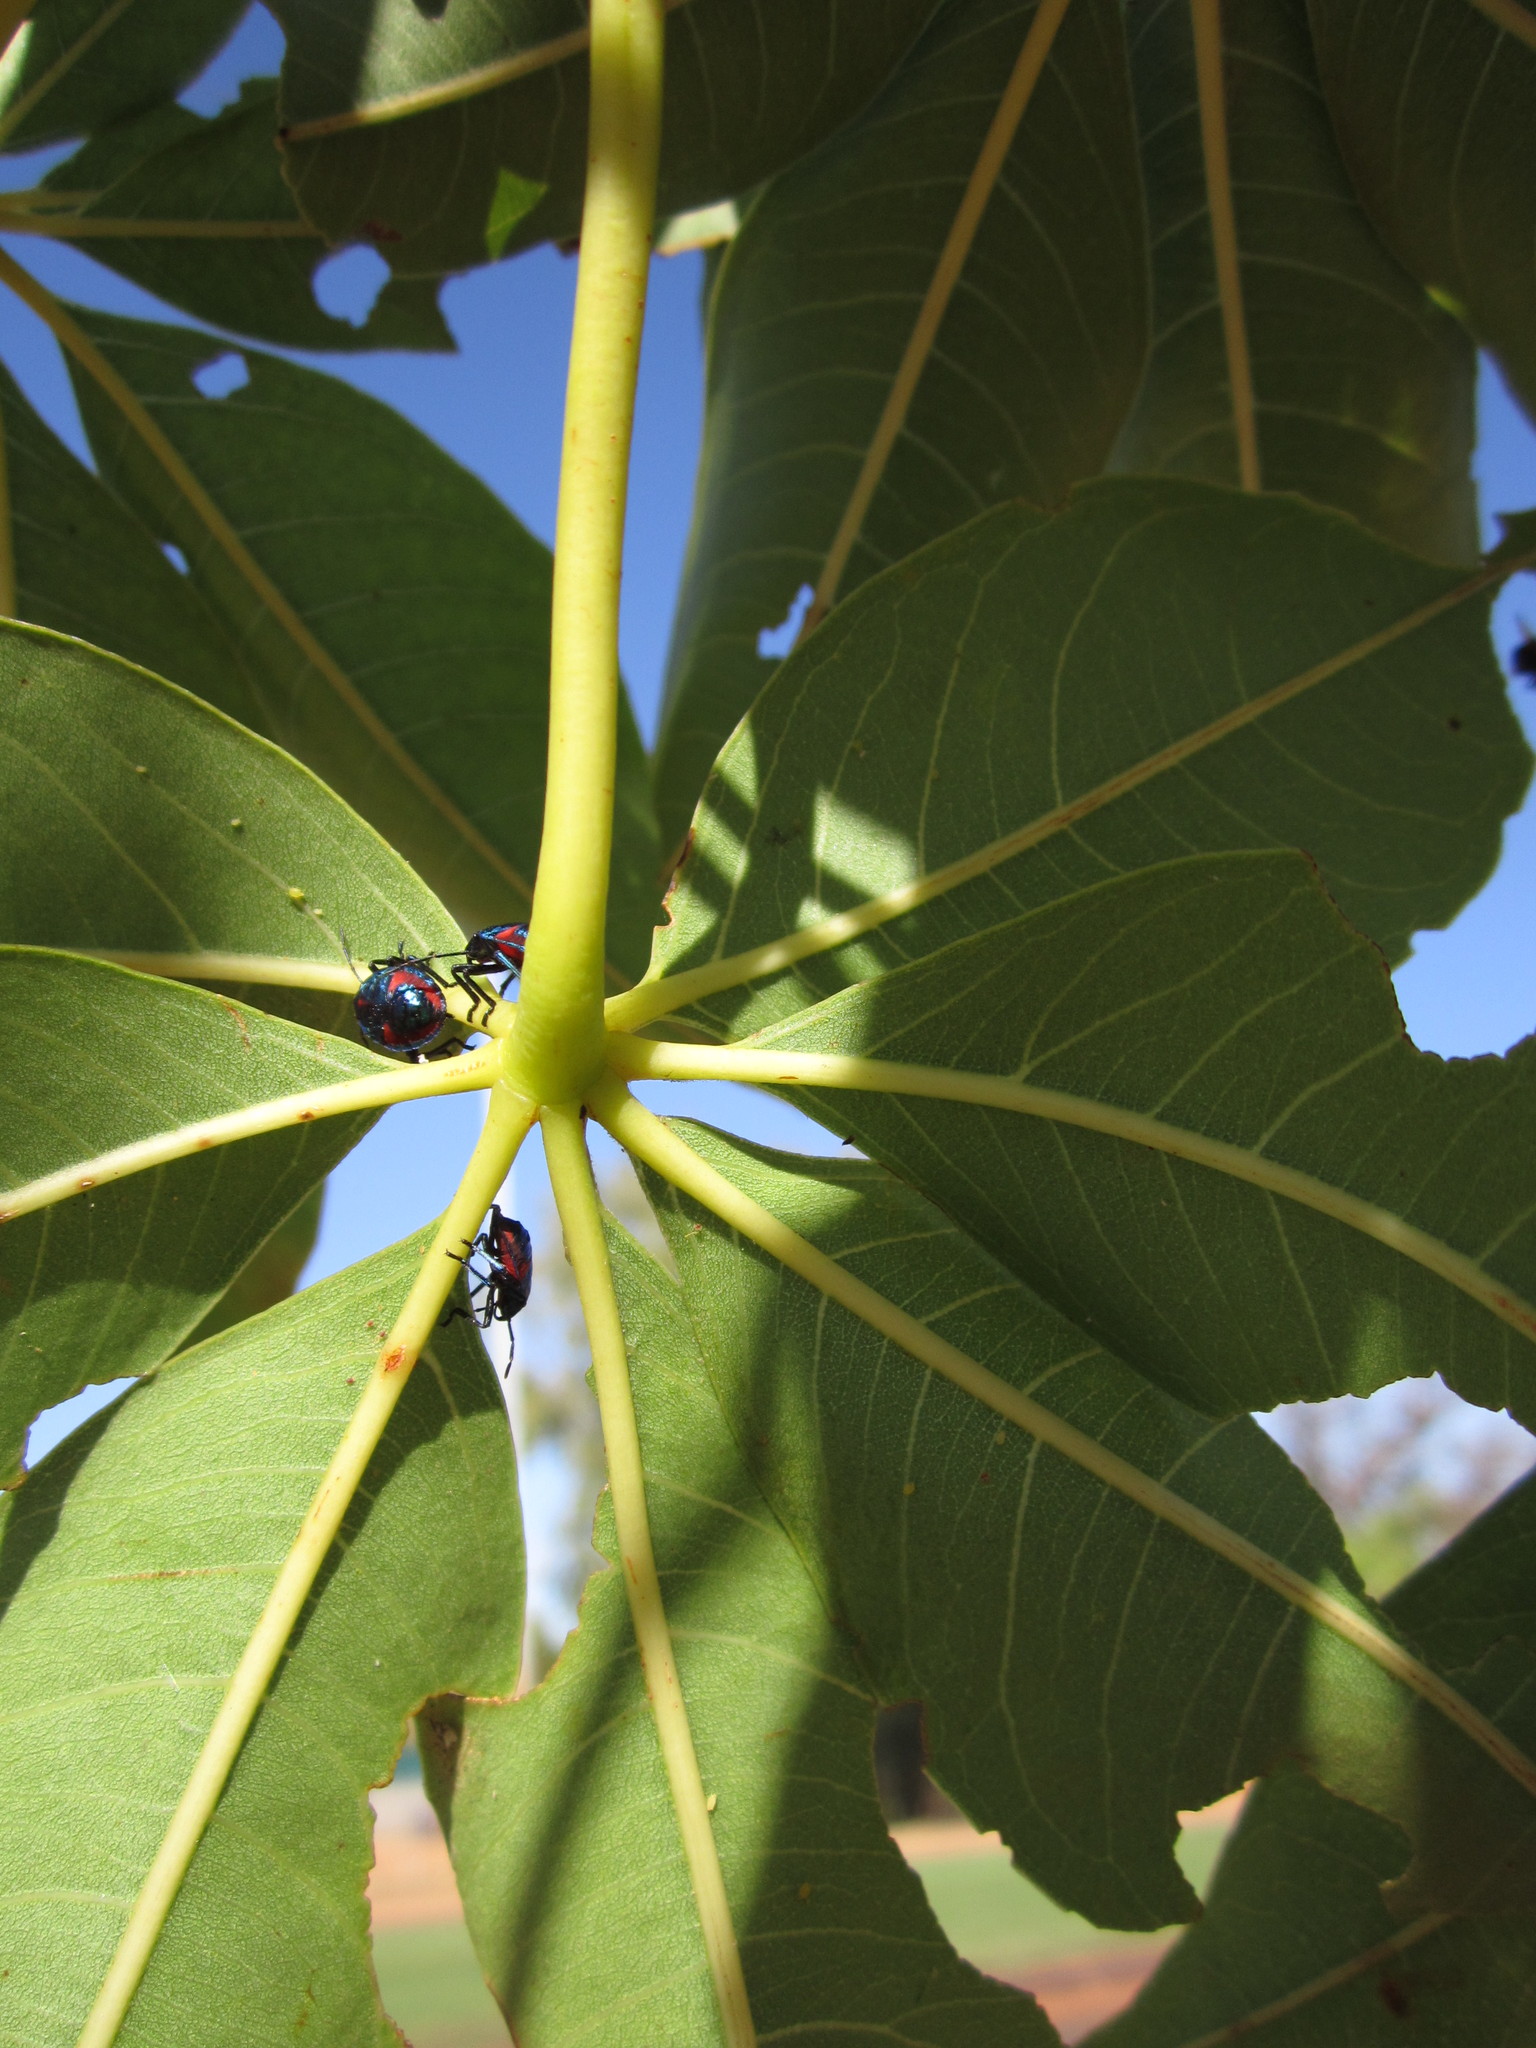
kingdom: Animalia
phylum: Arthropoda
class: Insecta
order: Hemiptera
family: Scutelleridae
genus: Tectocoris
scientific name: Tectocoris diophthalmus
